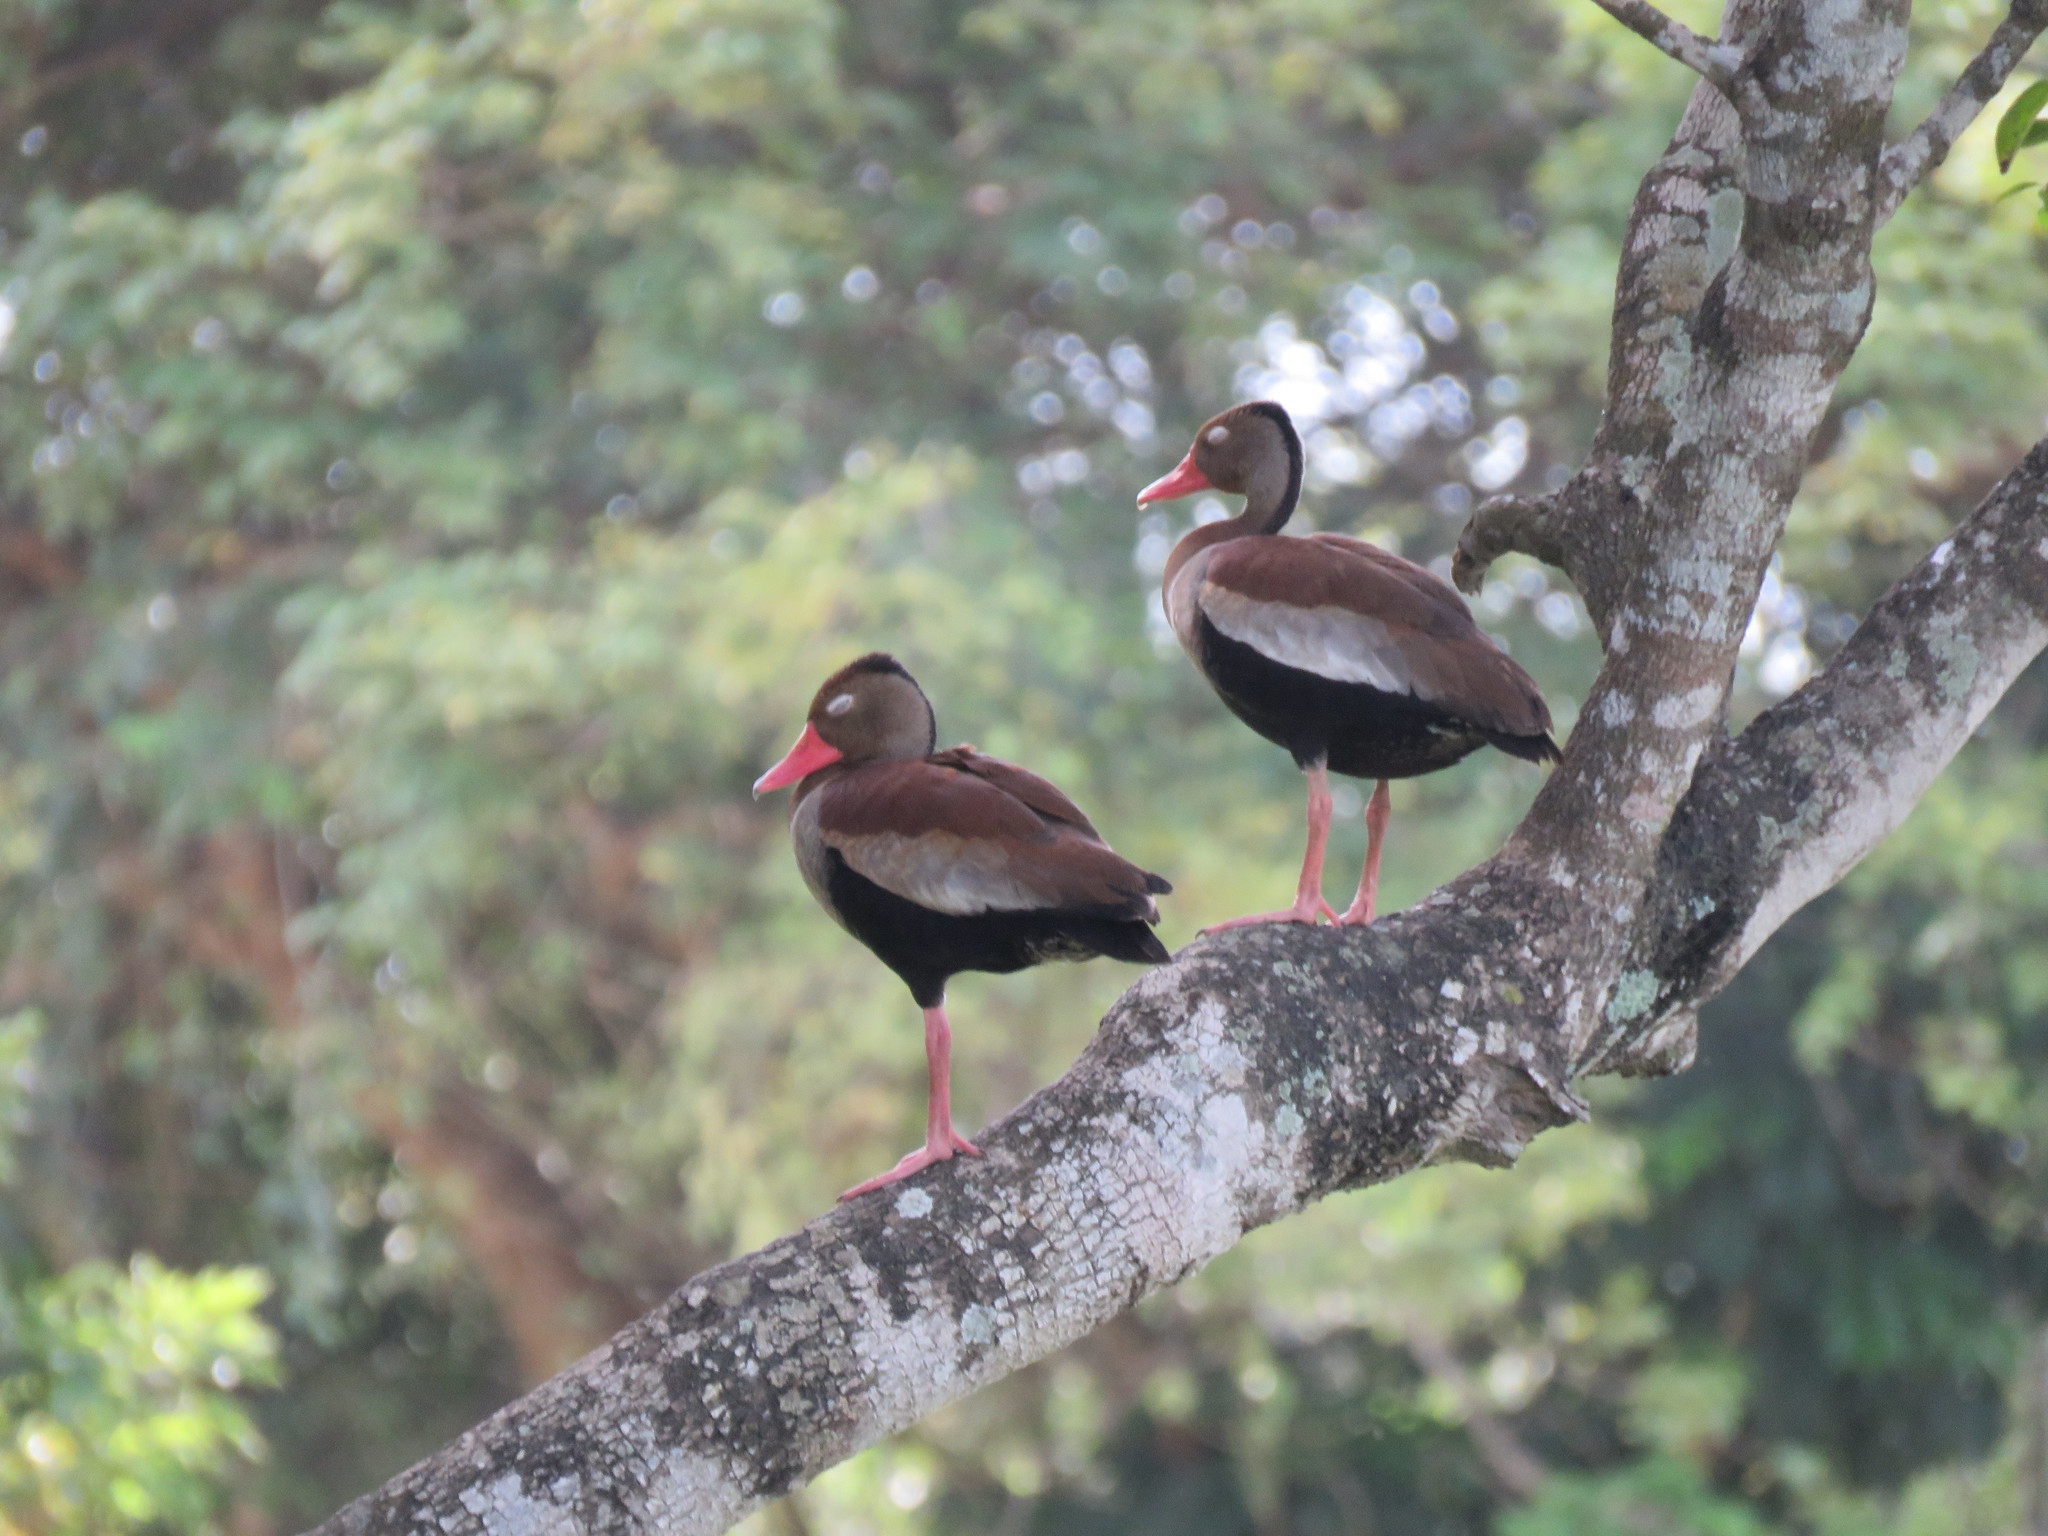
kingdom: Animalia
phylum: Chordata
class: Aves
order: Anseriformes
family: Anatidae
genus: Dendrocygna
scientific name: Dendrocygna autumnalis
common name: Black-bellied whistling duck
